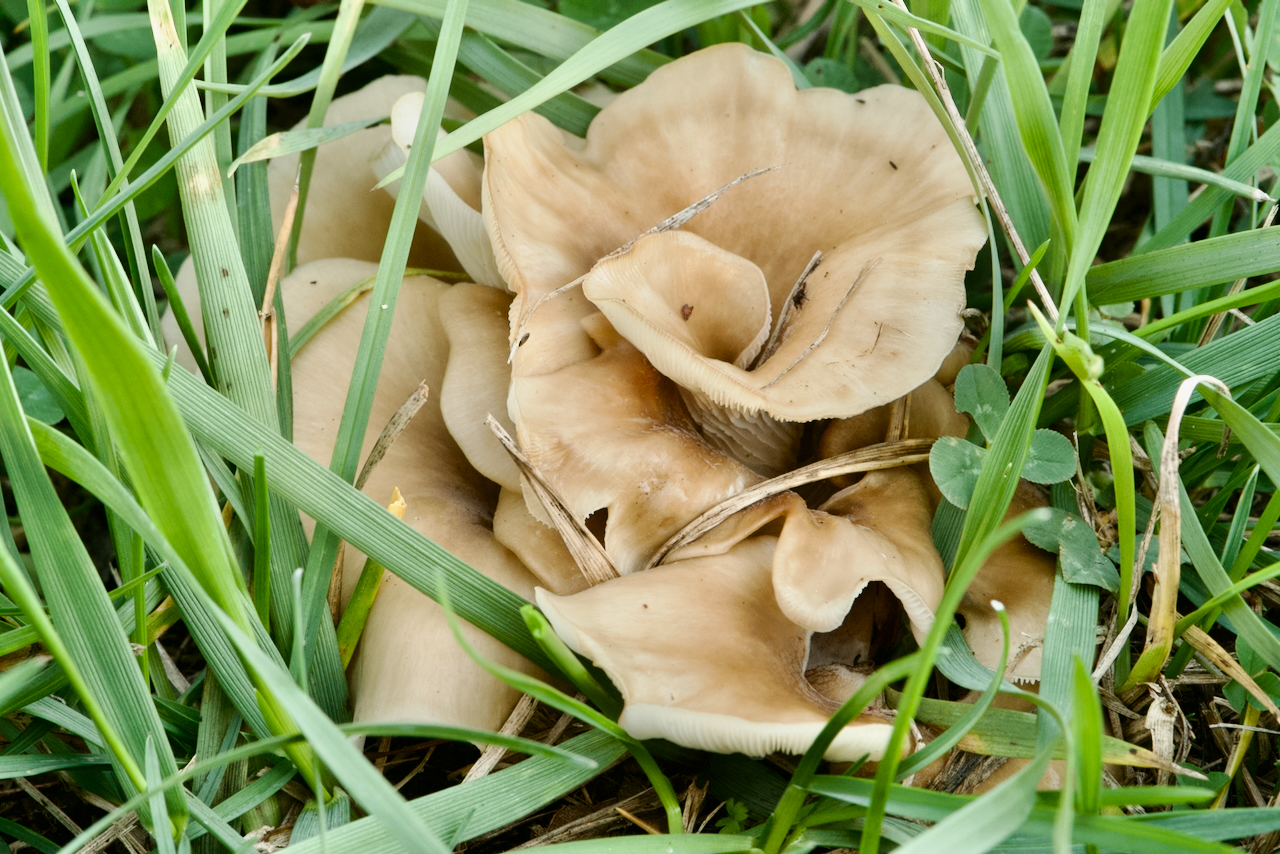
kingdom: Fungi
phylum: Basidiomycota
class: Agaricomycetes
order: Agaricales
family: Pleurotaceae
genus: Hohenbuehelia
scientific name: Hohenbuehelia petaloides
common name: Shoehorn oyster
